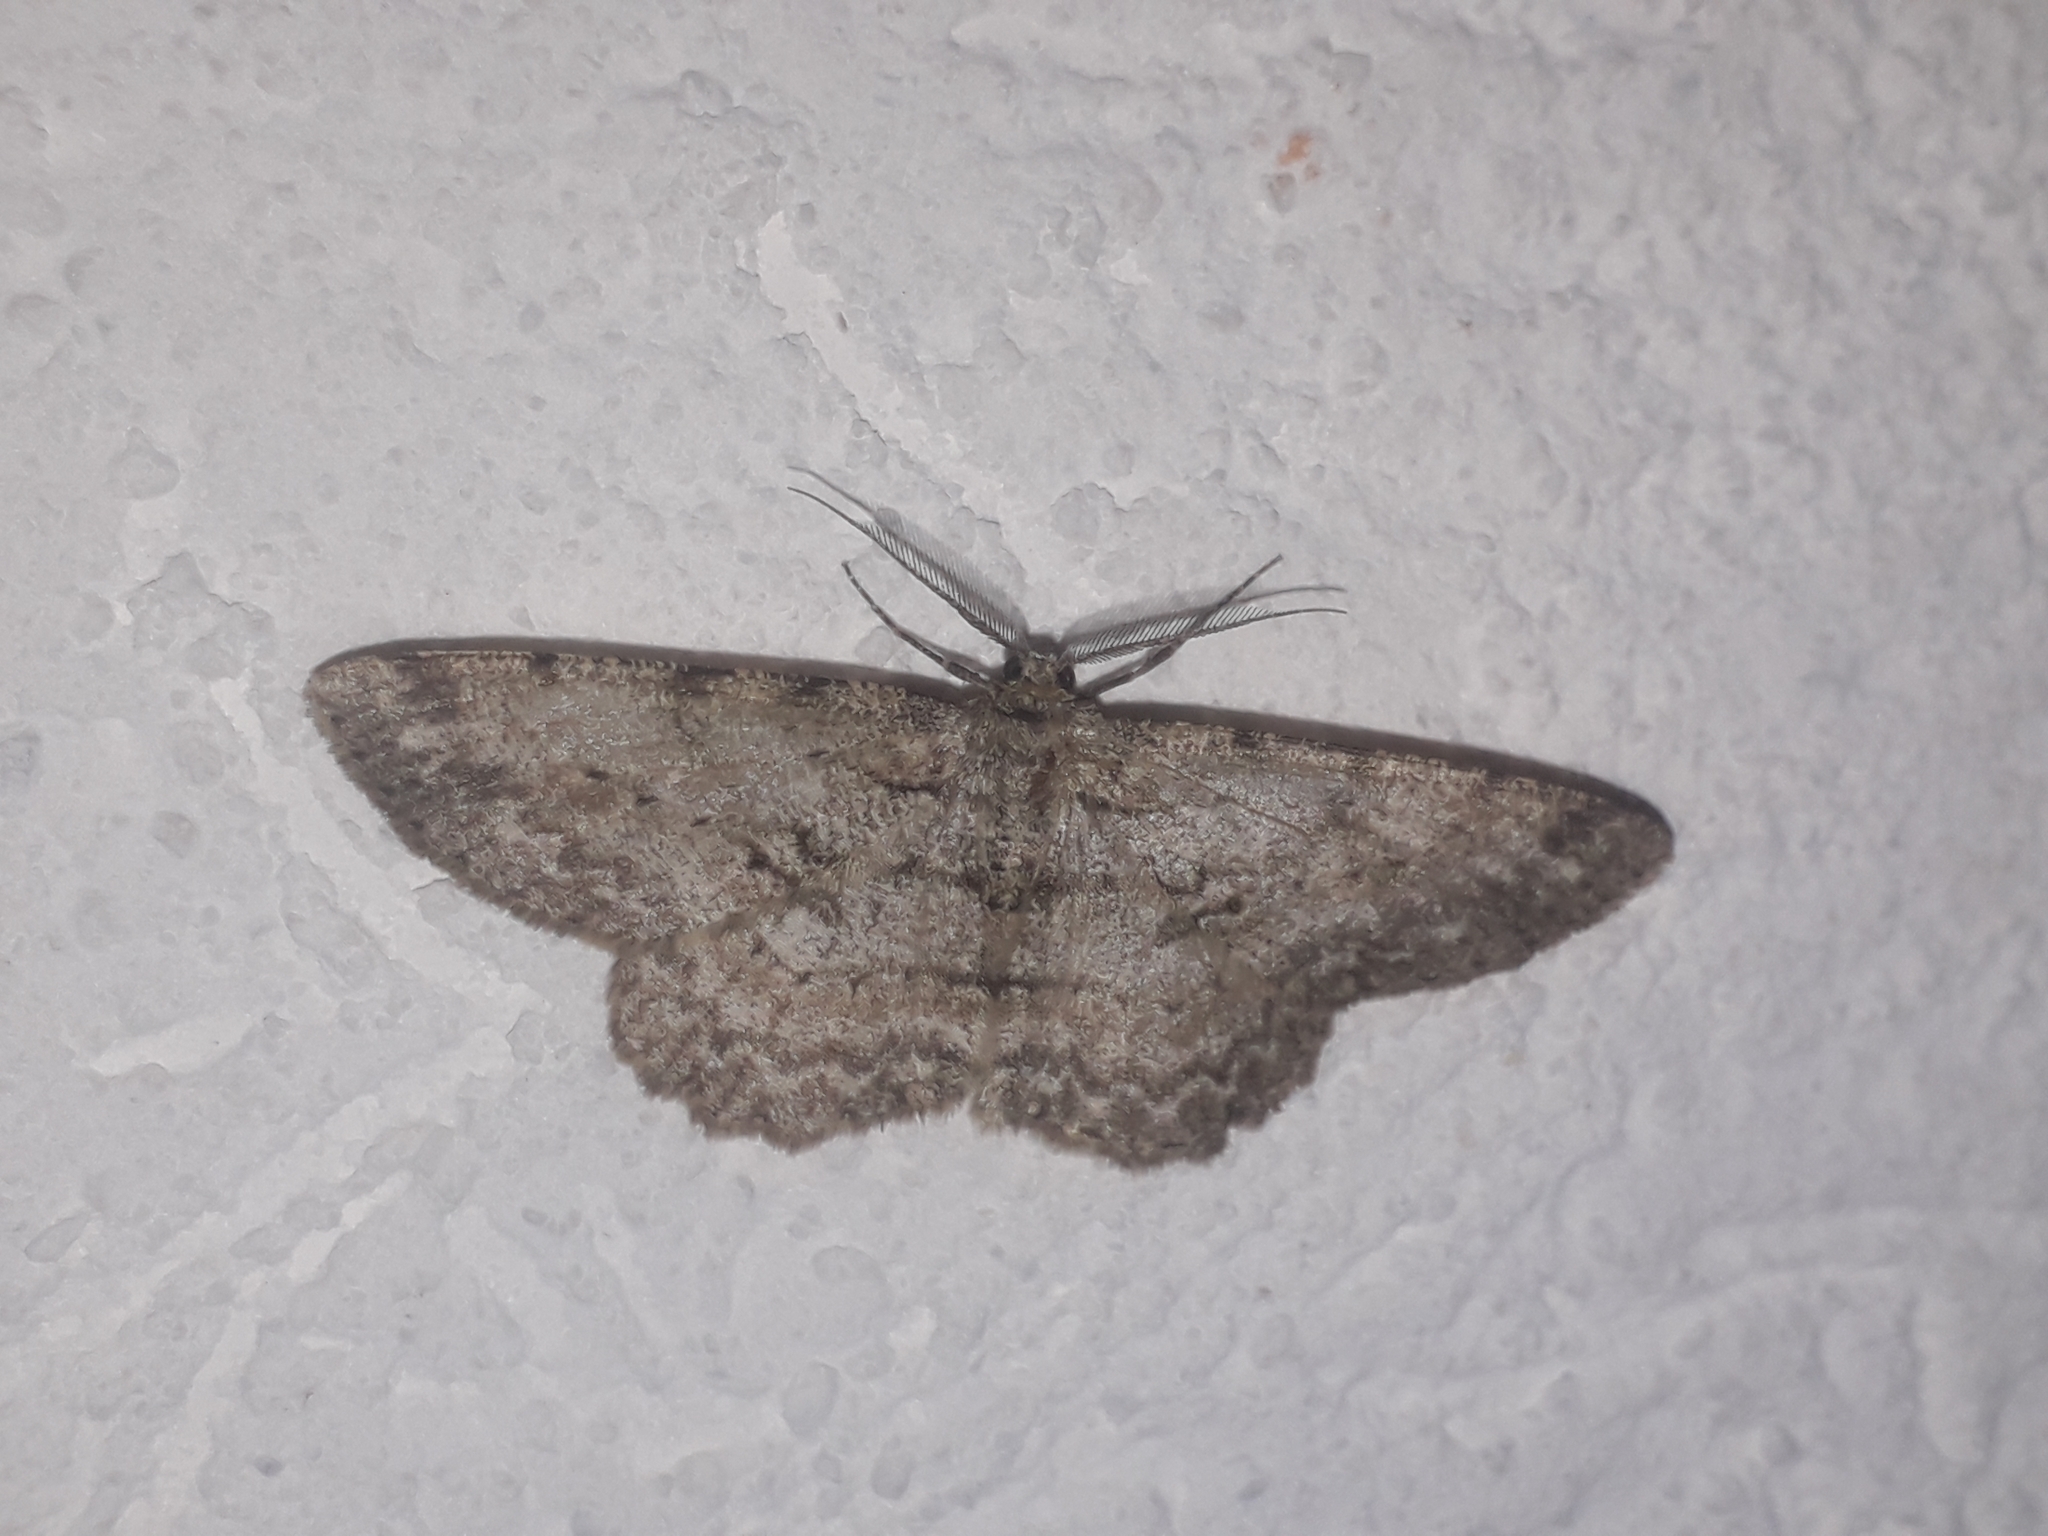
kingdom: Animalia
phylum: Arthropoda
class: Insecta
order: Lepidoptera
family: Geometridae
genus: Hypomecis
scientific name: Hypomecis punctinalis
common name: Pale oak beauty
